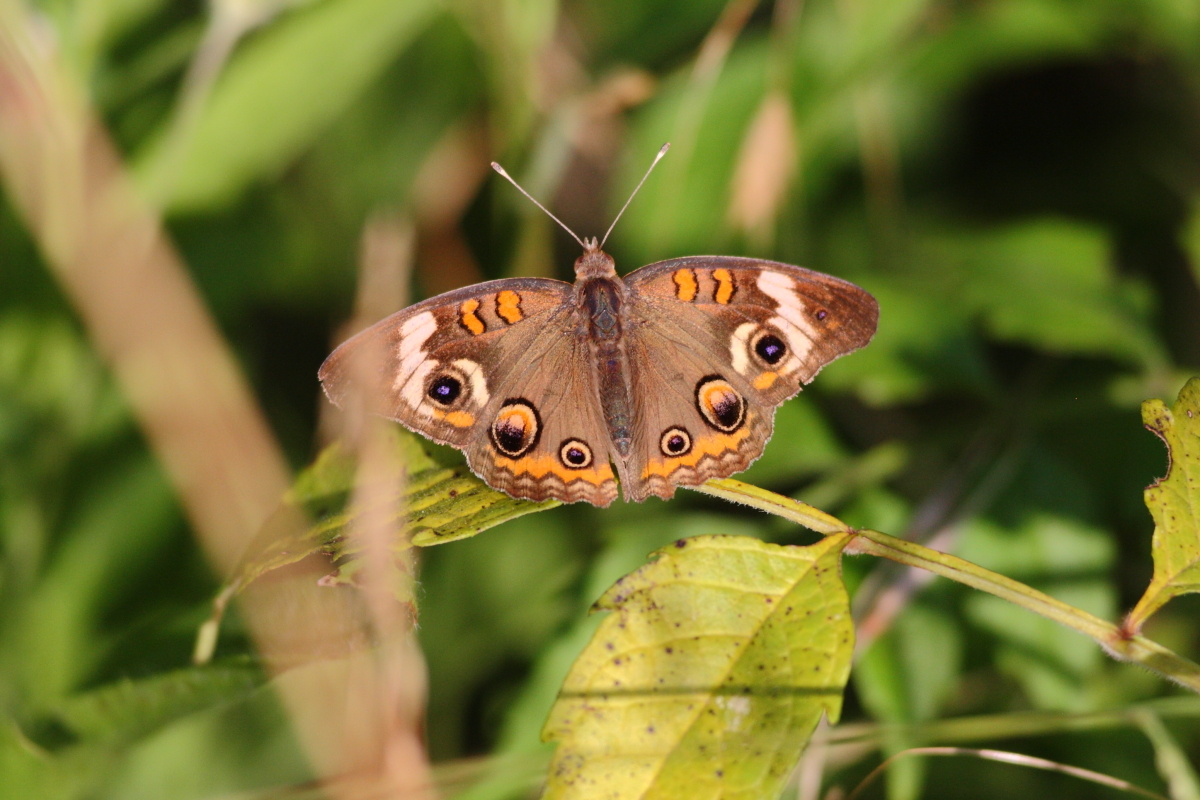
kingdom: Animalia
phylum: Arthropoda
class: Insecta
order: Lepidoptera
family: Nymphalidae
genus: Junonia
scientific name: Junonia coenia
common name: Common buckeye
